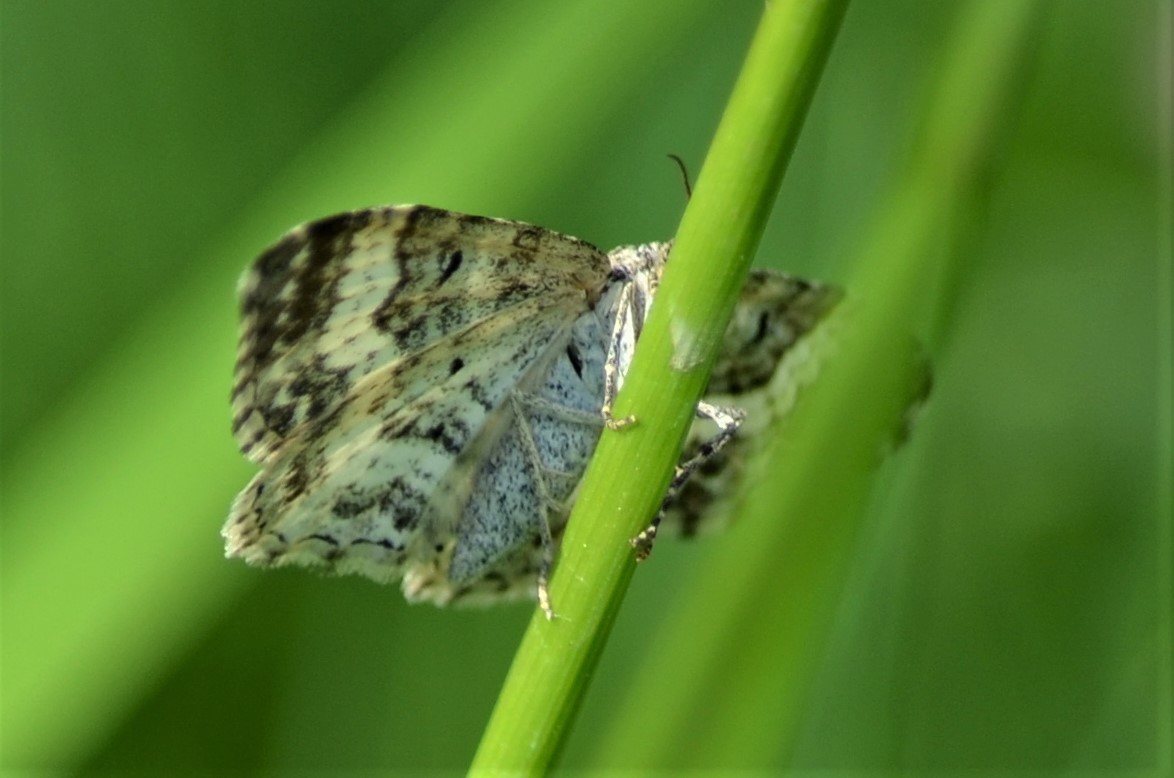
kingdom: Animalia
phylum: Arthropoda
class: Insecta
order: Lepidoptera
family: Geometridae
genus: Epirrhoe
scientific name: Epirrhoe alternata
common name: Common carpet
